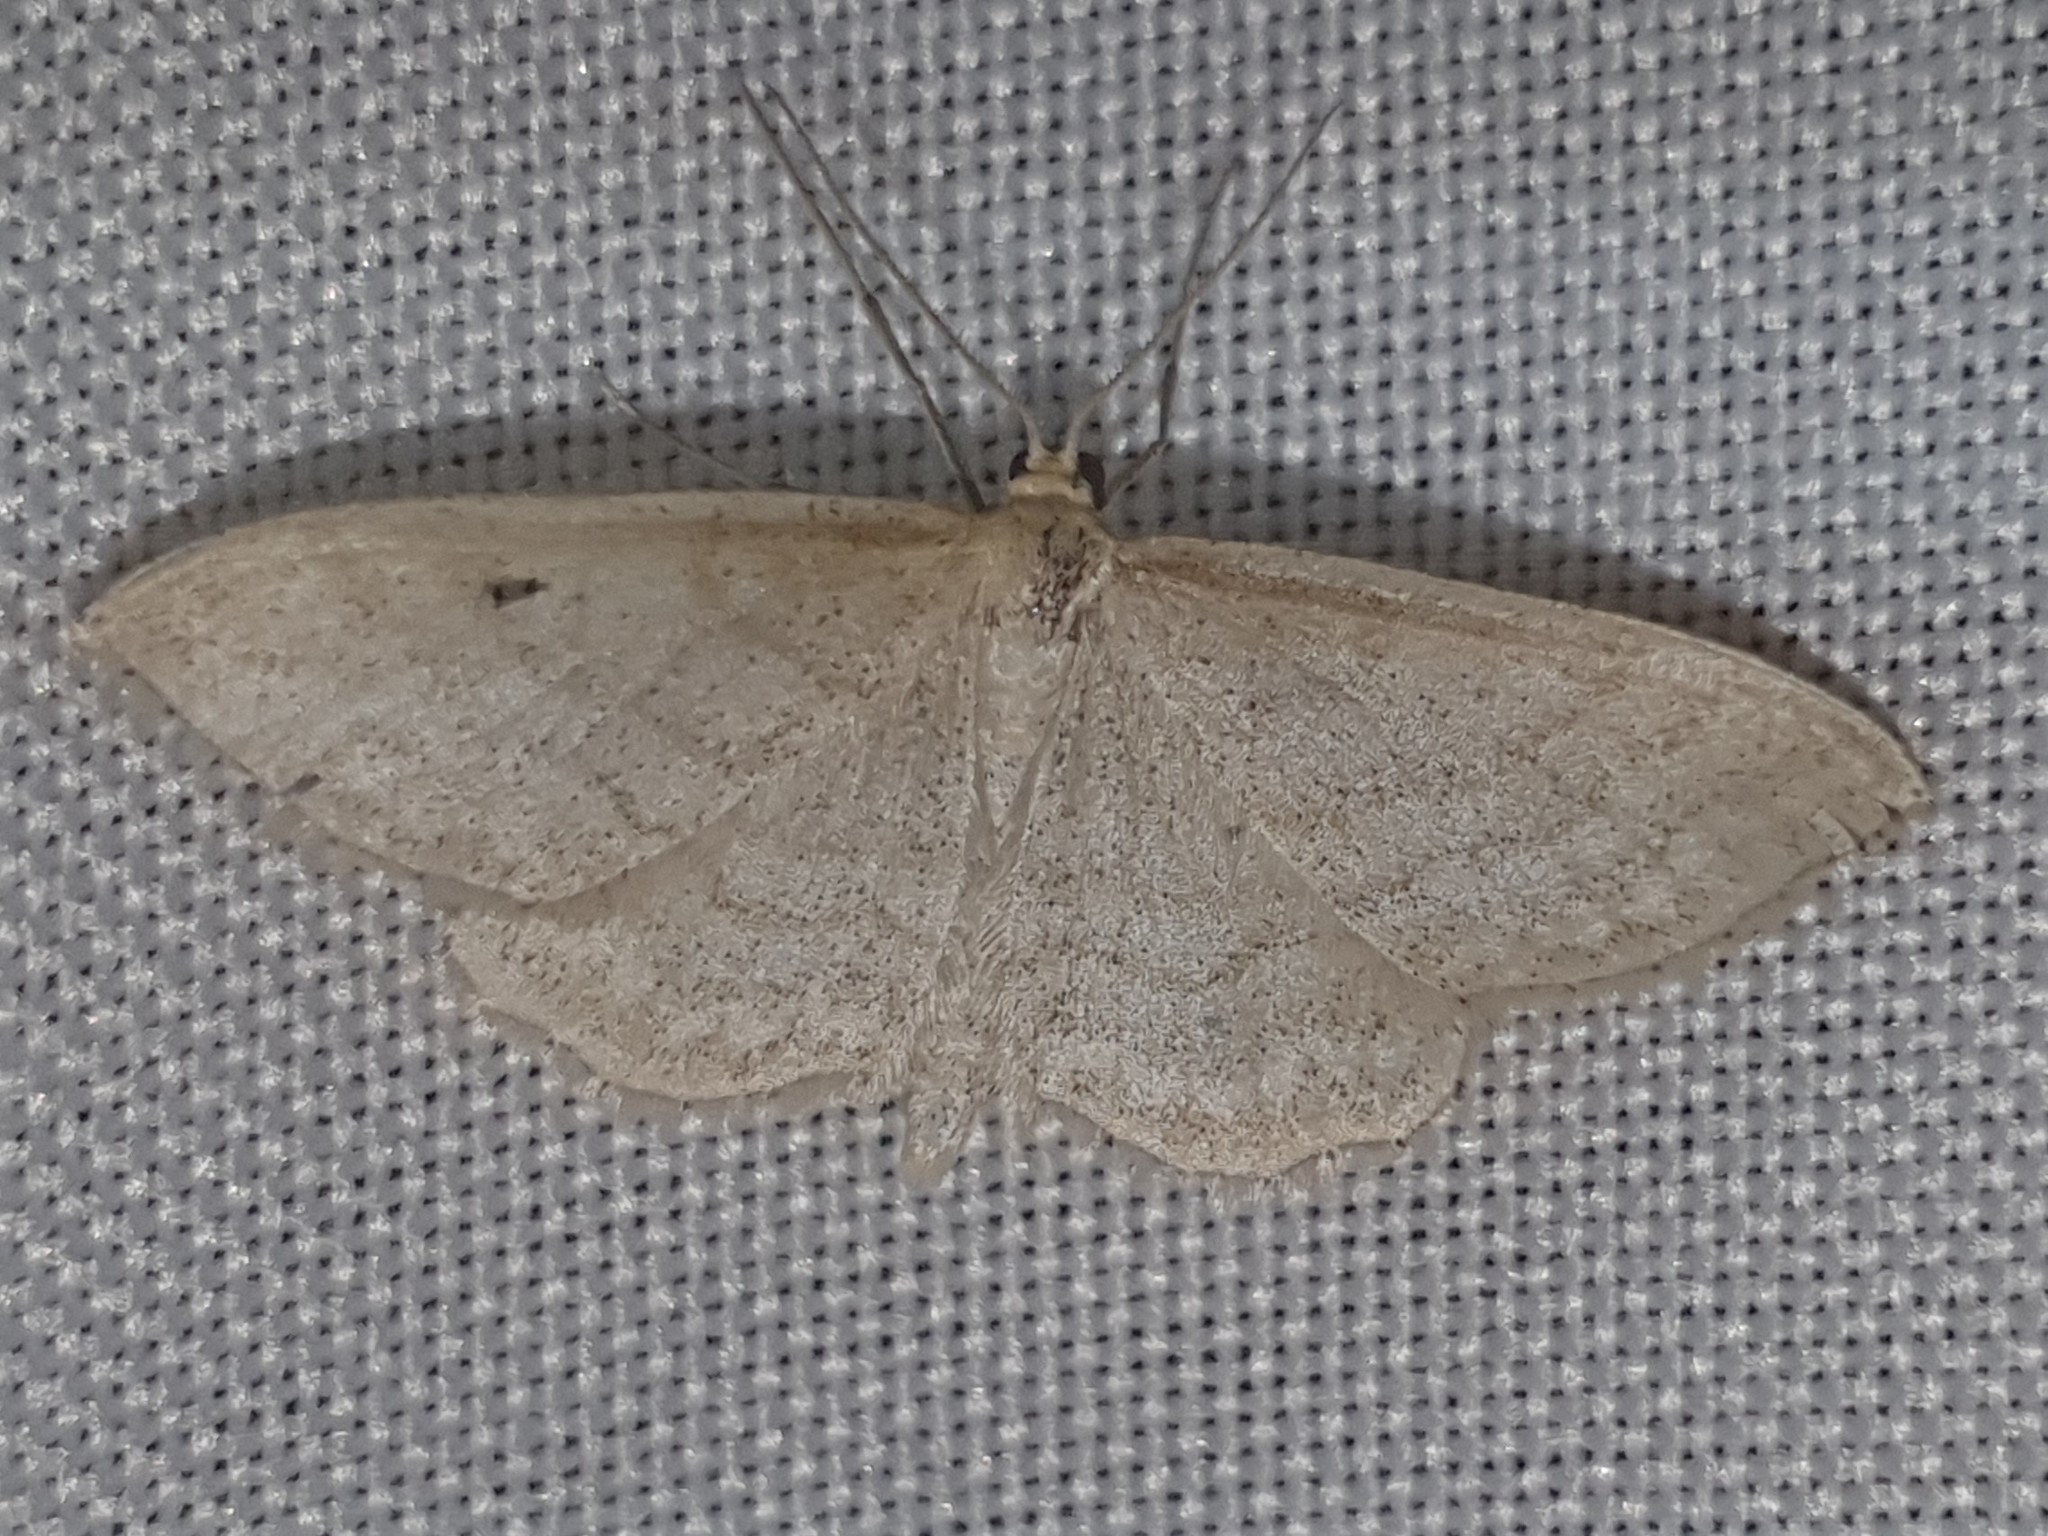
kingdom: Animalia
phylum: Arthropoda
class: Insecta
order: Lepidoptera
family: Geometridae
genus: Idaea
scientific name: Idaea antiquaria
